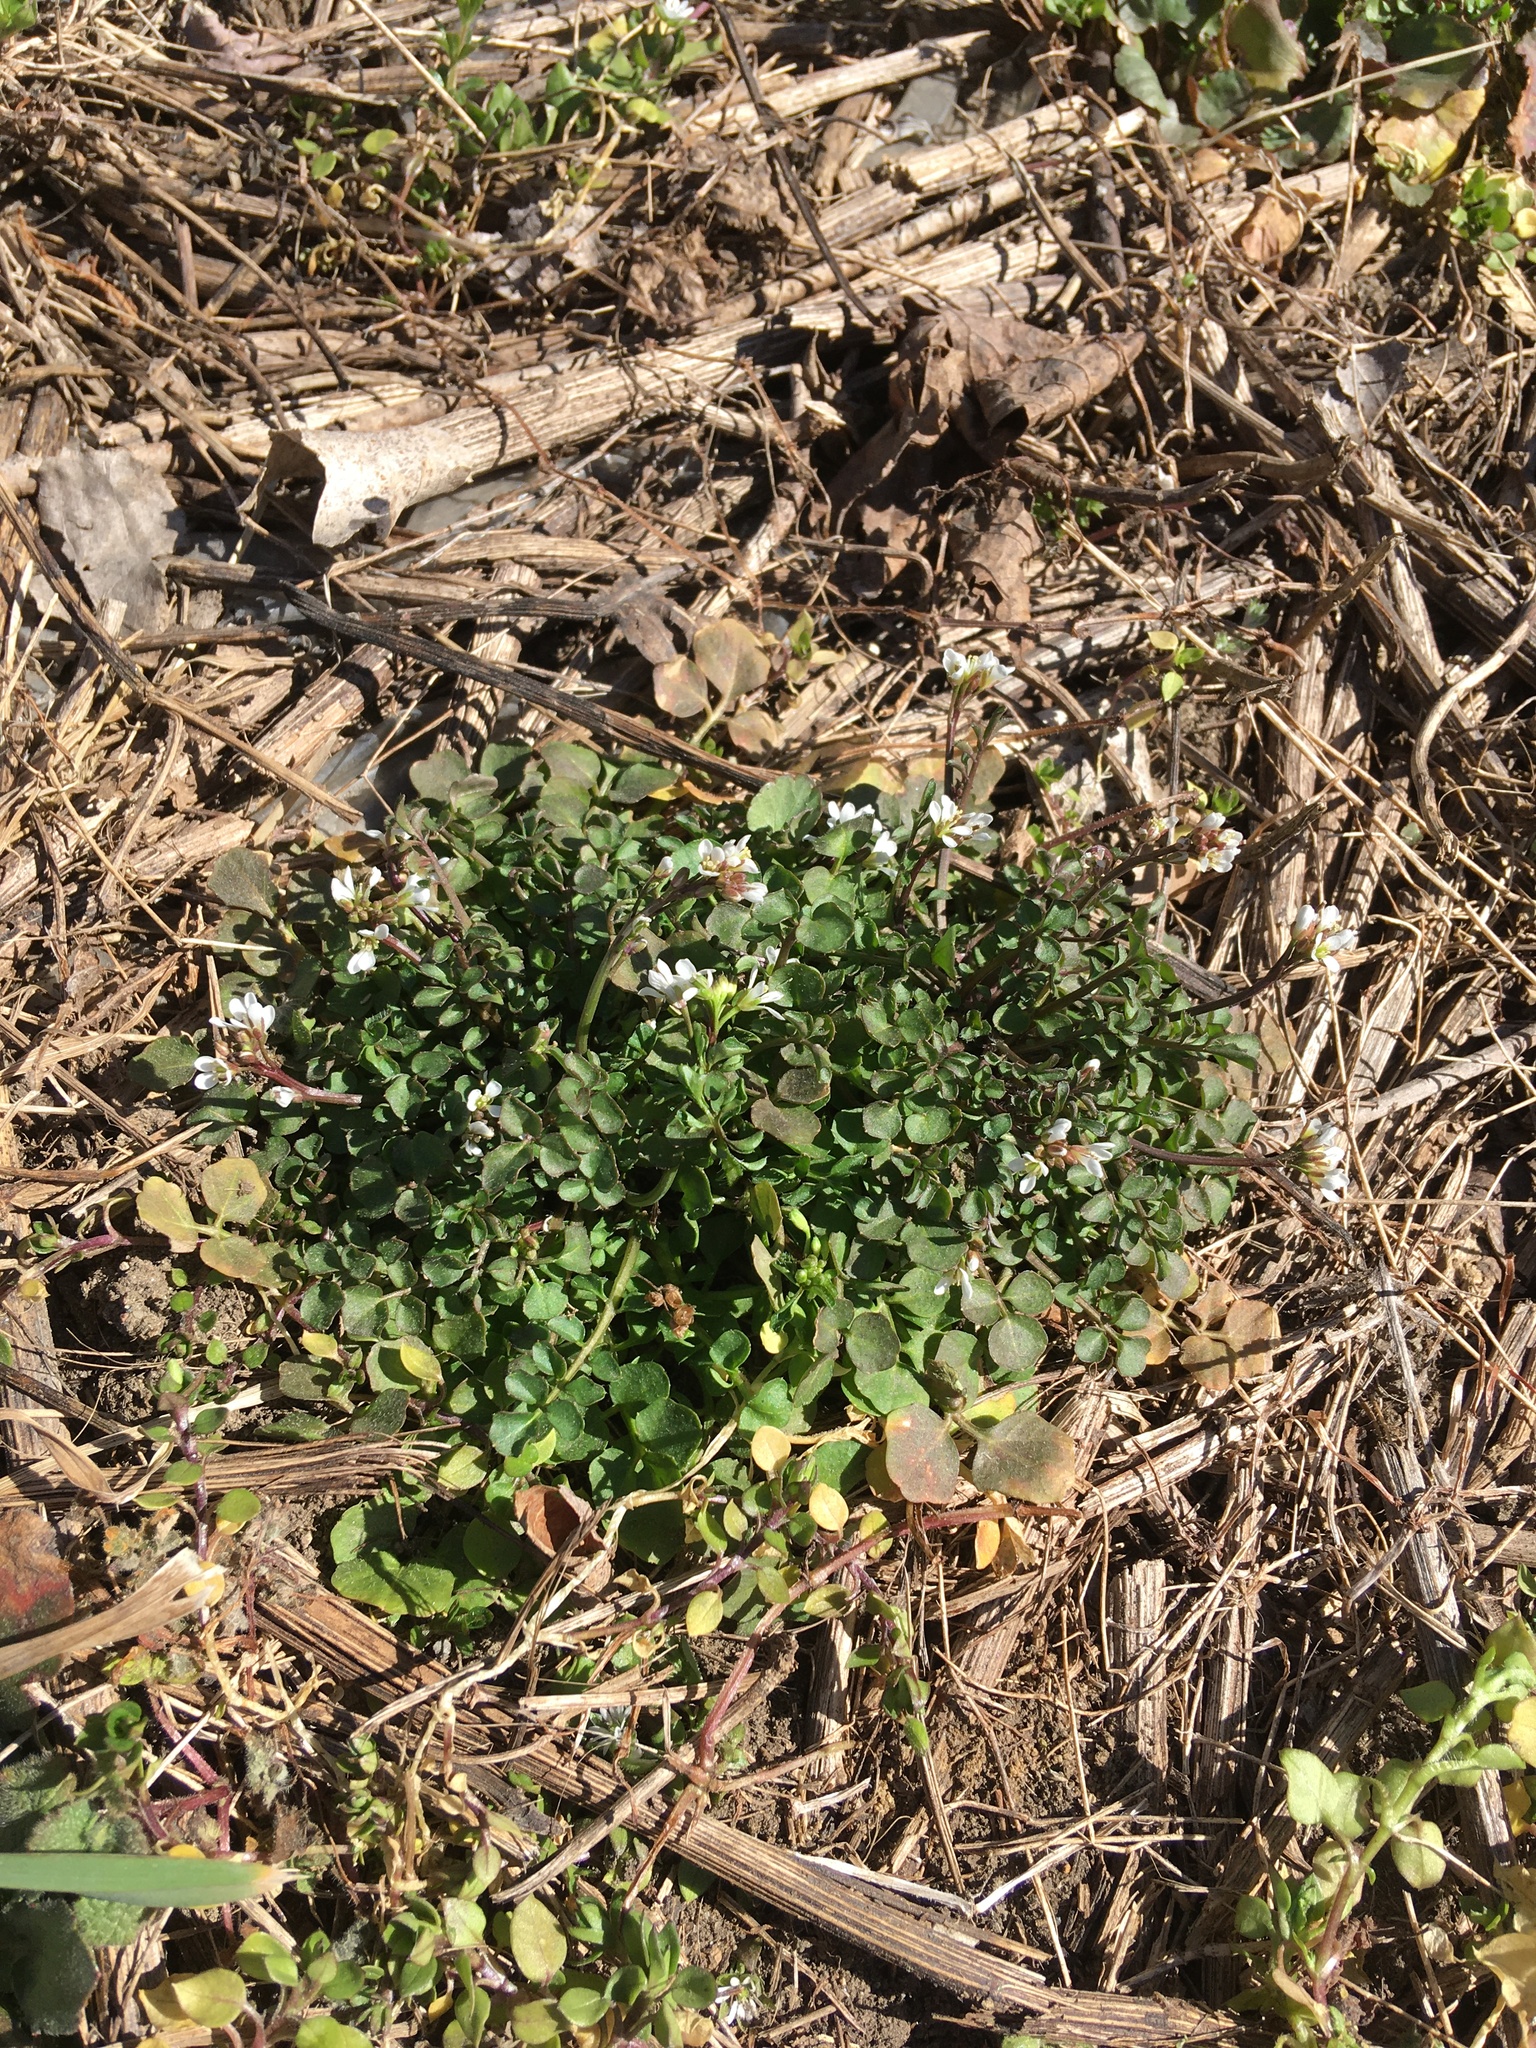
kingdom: Plantae
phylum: Tracheophyta
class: Magnoliopsida
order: Brassicales
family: Brassicaceae
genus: Cardamine
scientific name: Cardamine hirsuta
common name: Hairy bittercress
